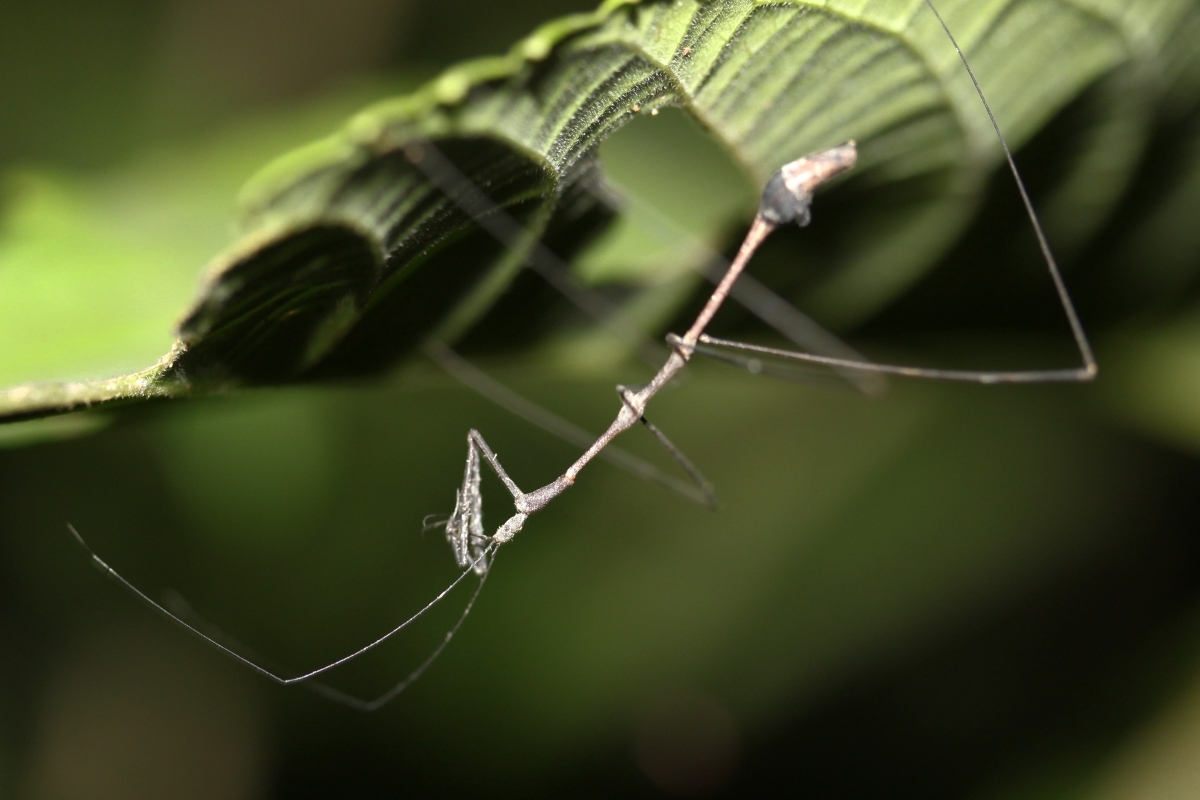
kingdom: Animalia
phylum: Arthropoda
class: Insecta
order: Hemiptera
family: Reduviidae
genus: Ghilianella
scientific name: Ghilianella
